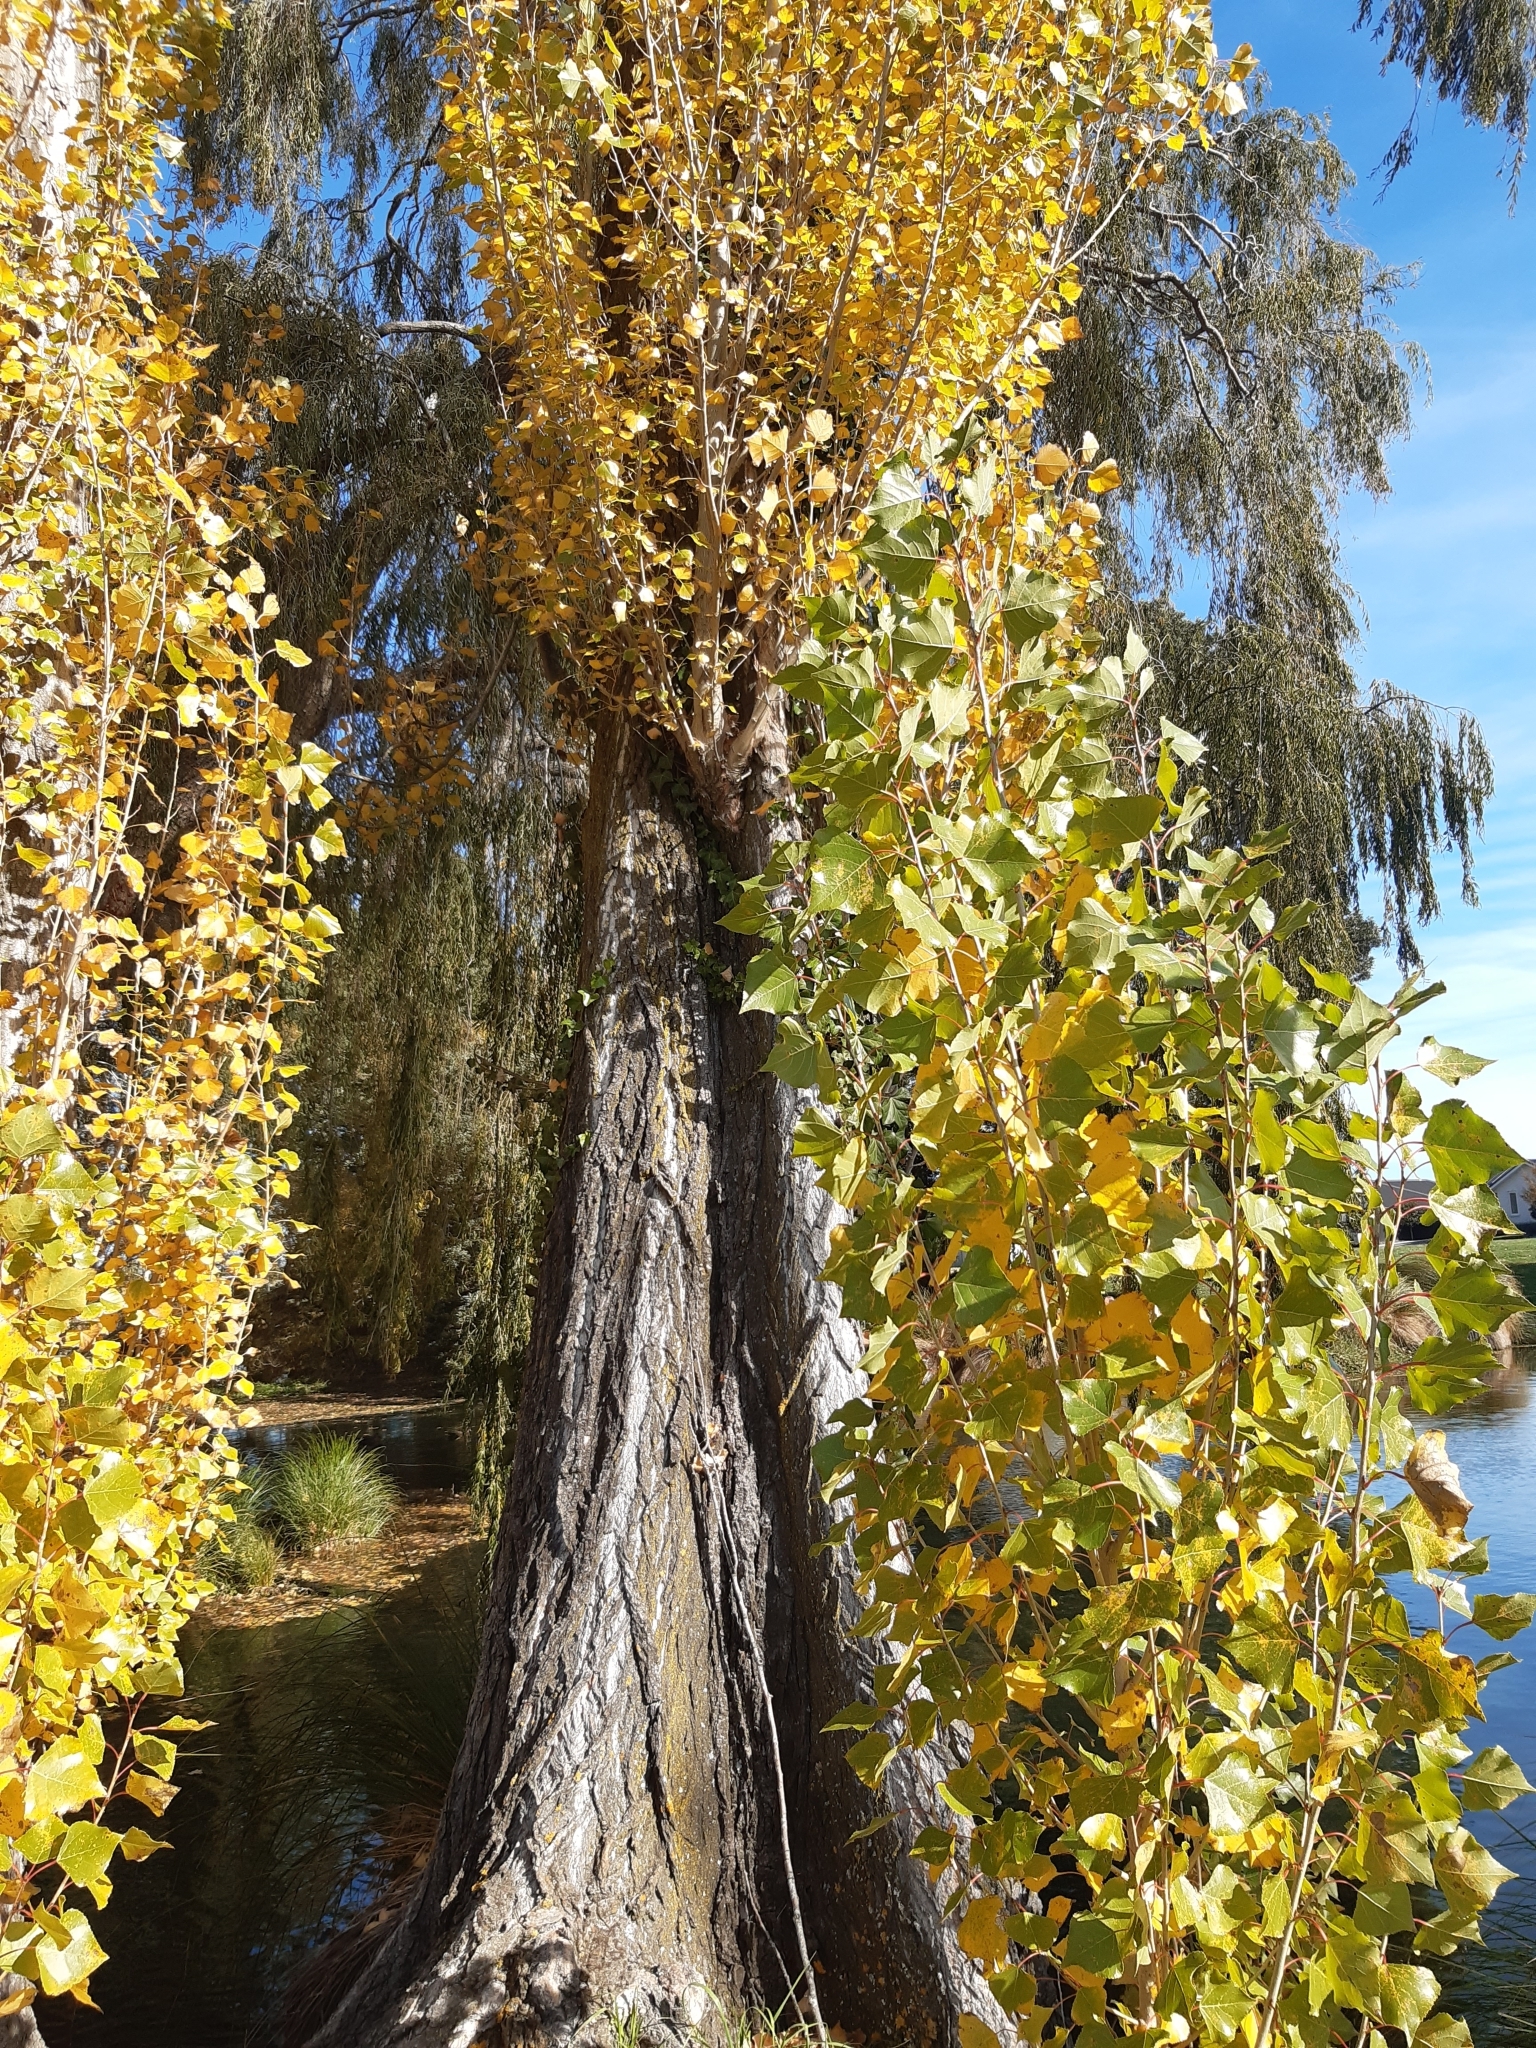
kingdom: Plantae
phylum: Tracheophyta
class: Magnoliopsida
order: Malpighiales
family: Salicaceae
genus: Populus
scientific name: Populus nigra
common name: Black poplar
